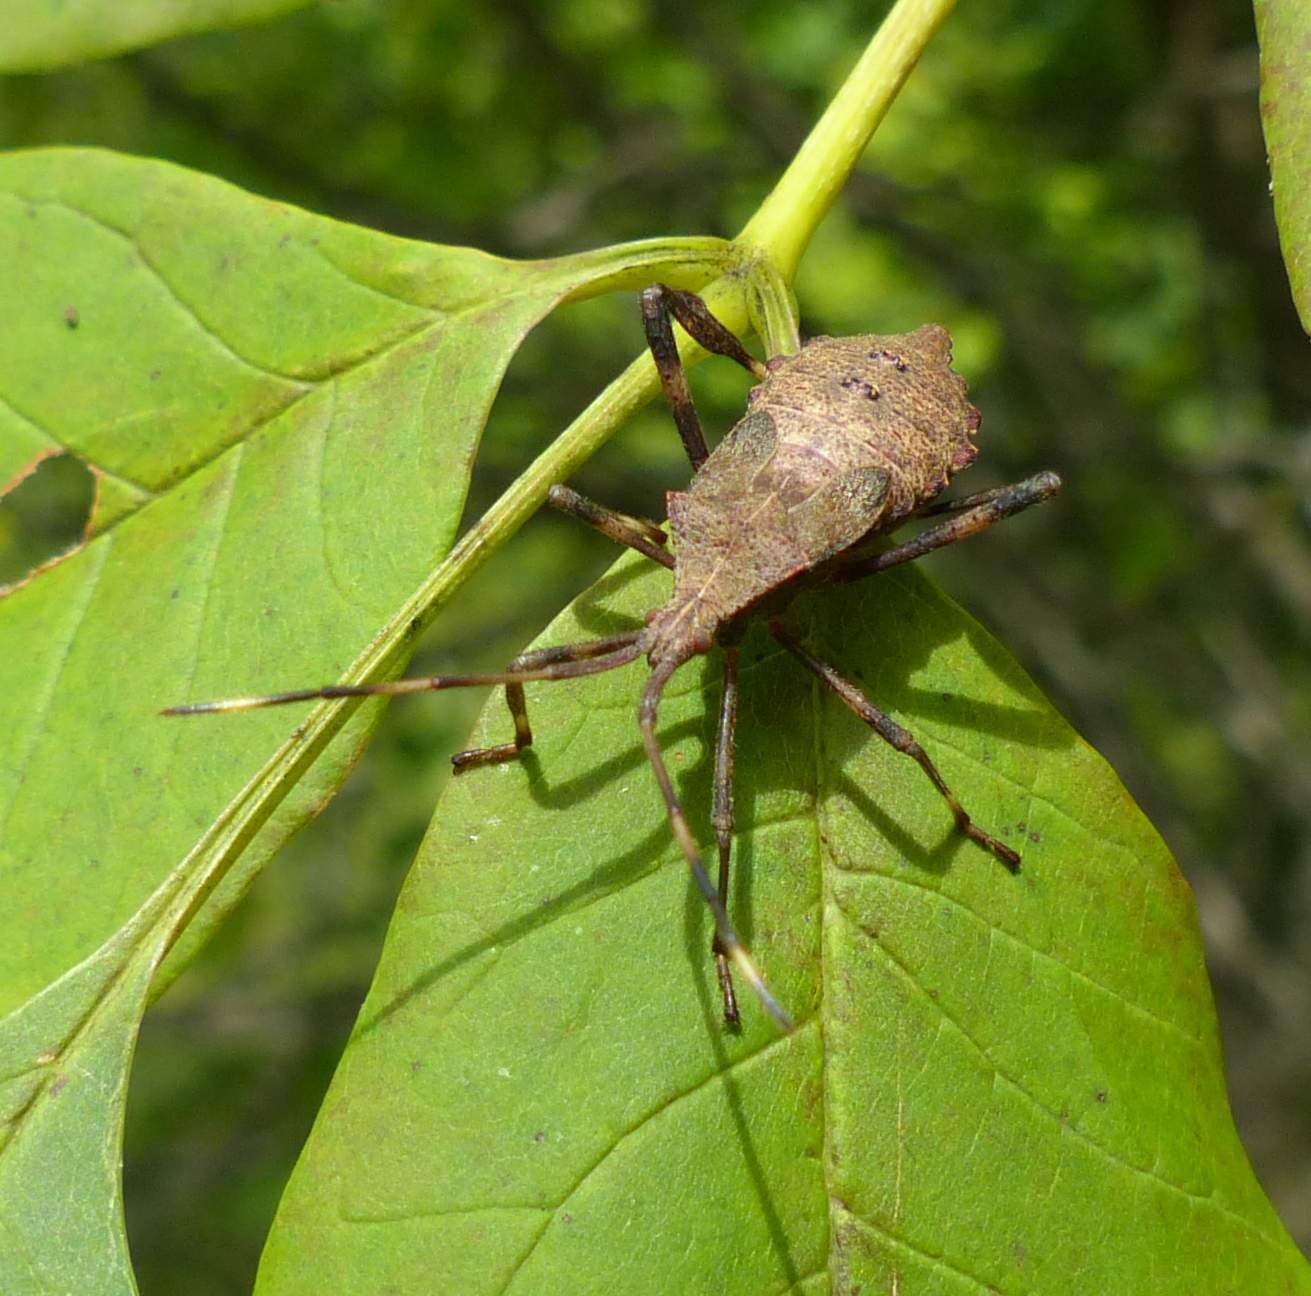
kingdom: Animalia
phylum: Arthropoda
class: Insecta
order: Hemiptera
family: Coreidae
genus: Acanthocephala
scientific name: Acanthocephala terminalis
